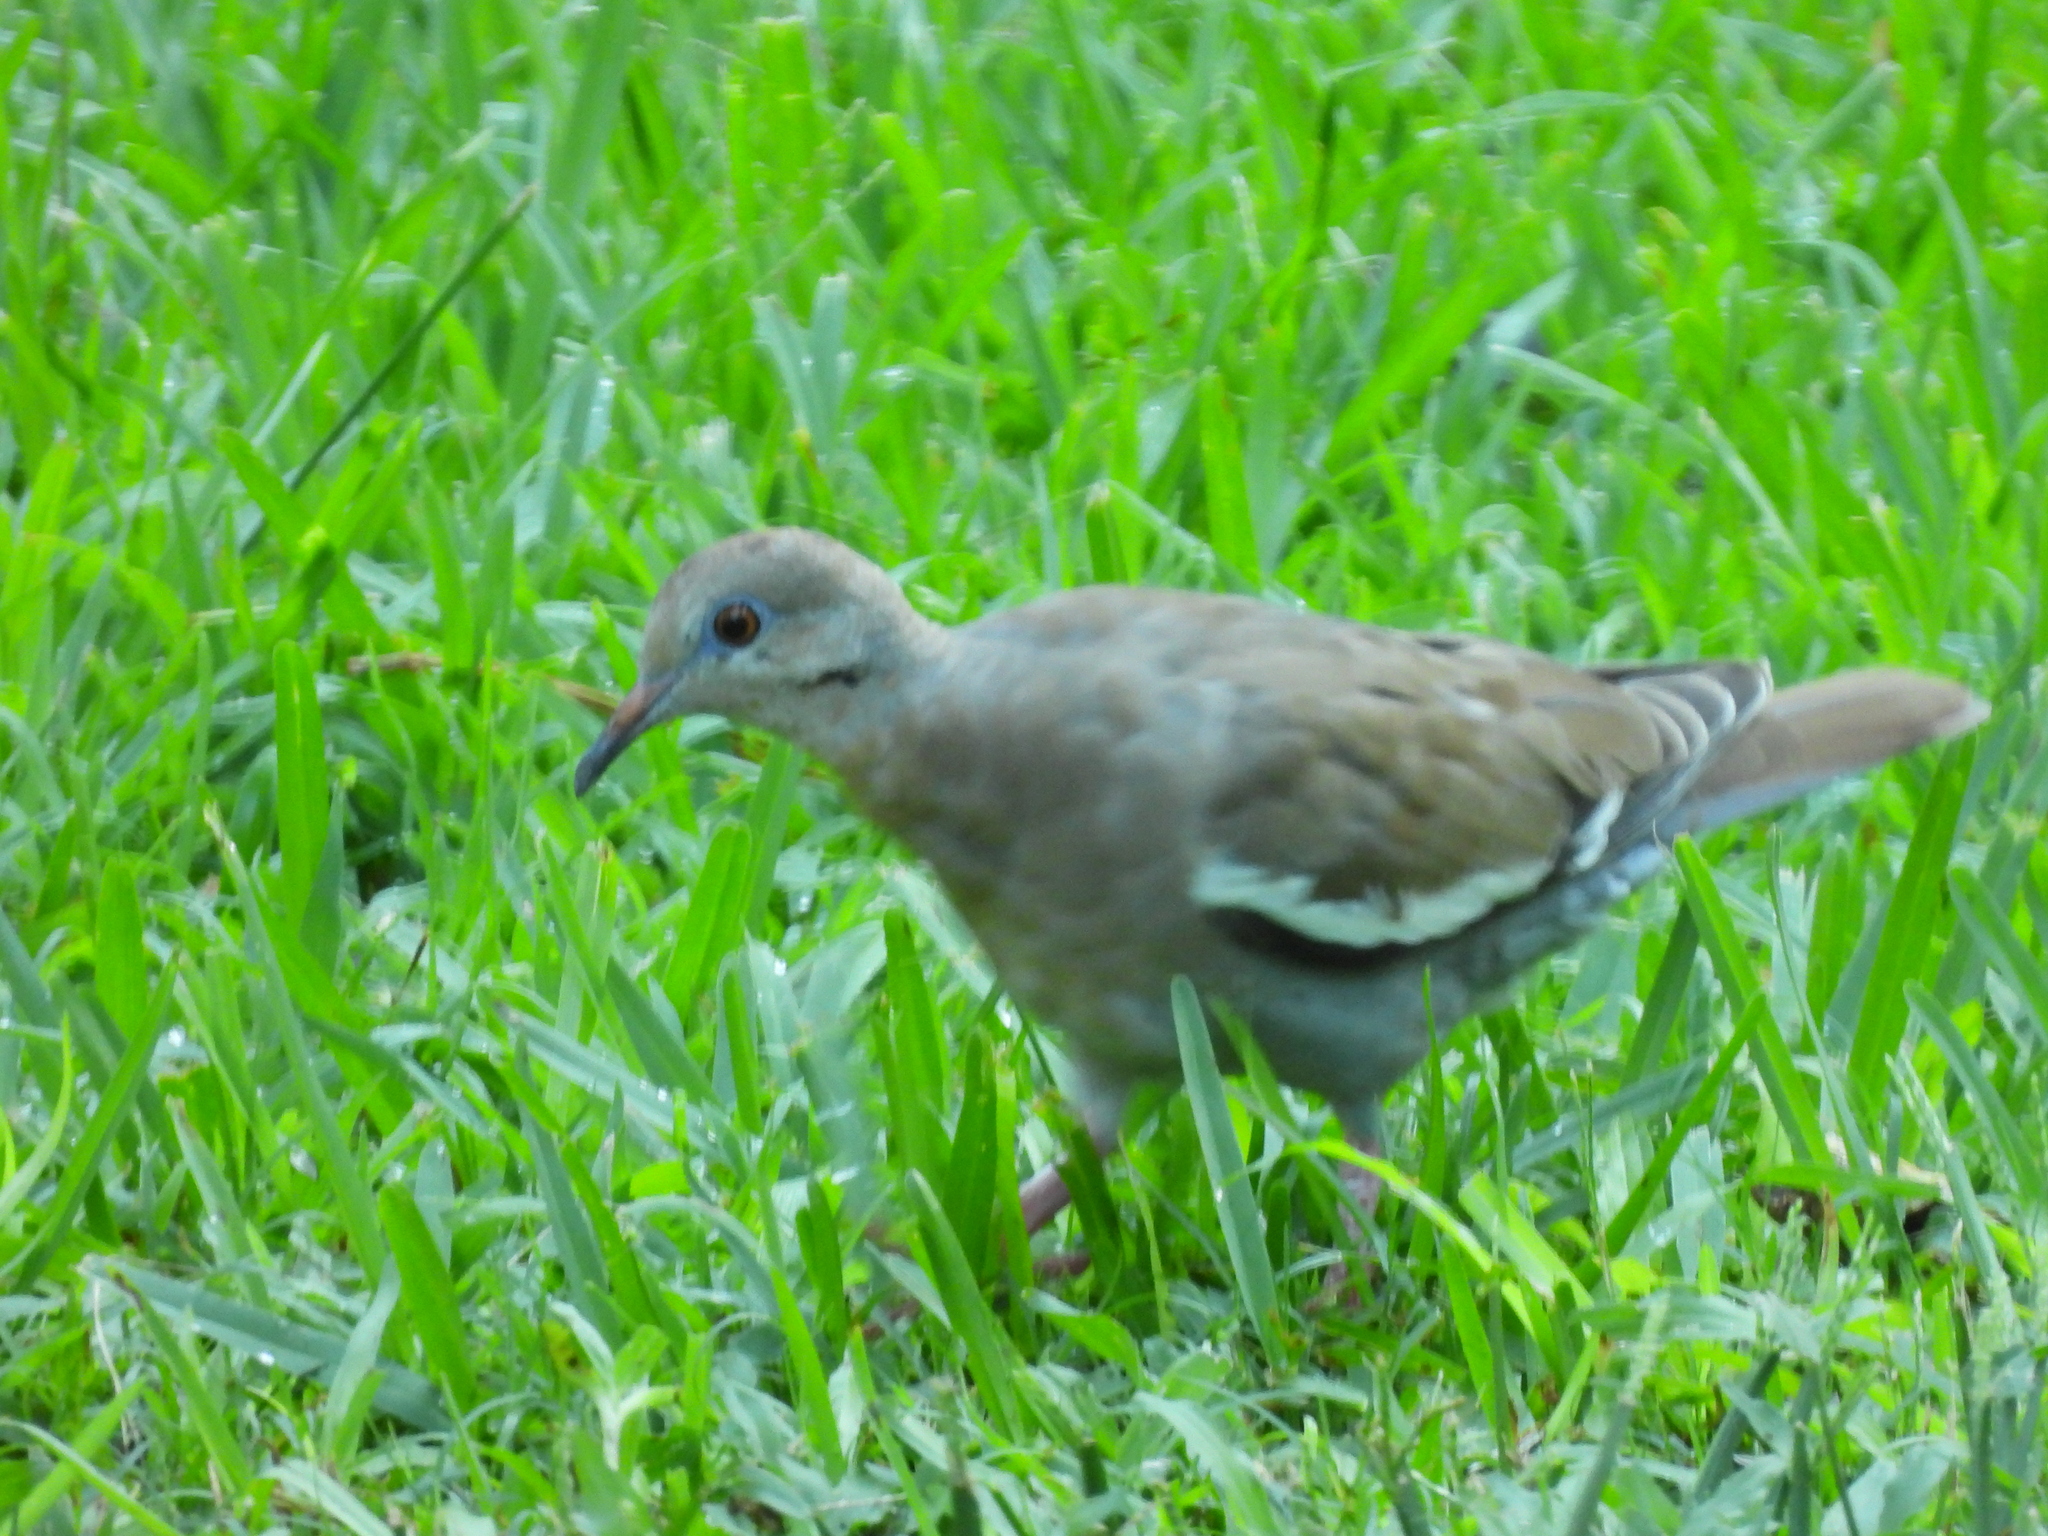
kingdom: Animalia
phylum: Chordata
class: Aves
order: Columbiformes
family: Columbidae
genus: Zenaida
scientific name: Zenaida asiatica
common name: White-winged dove
